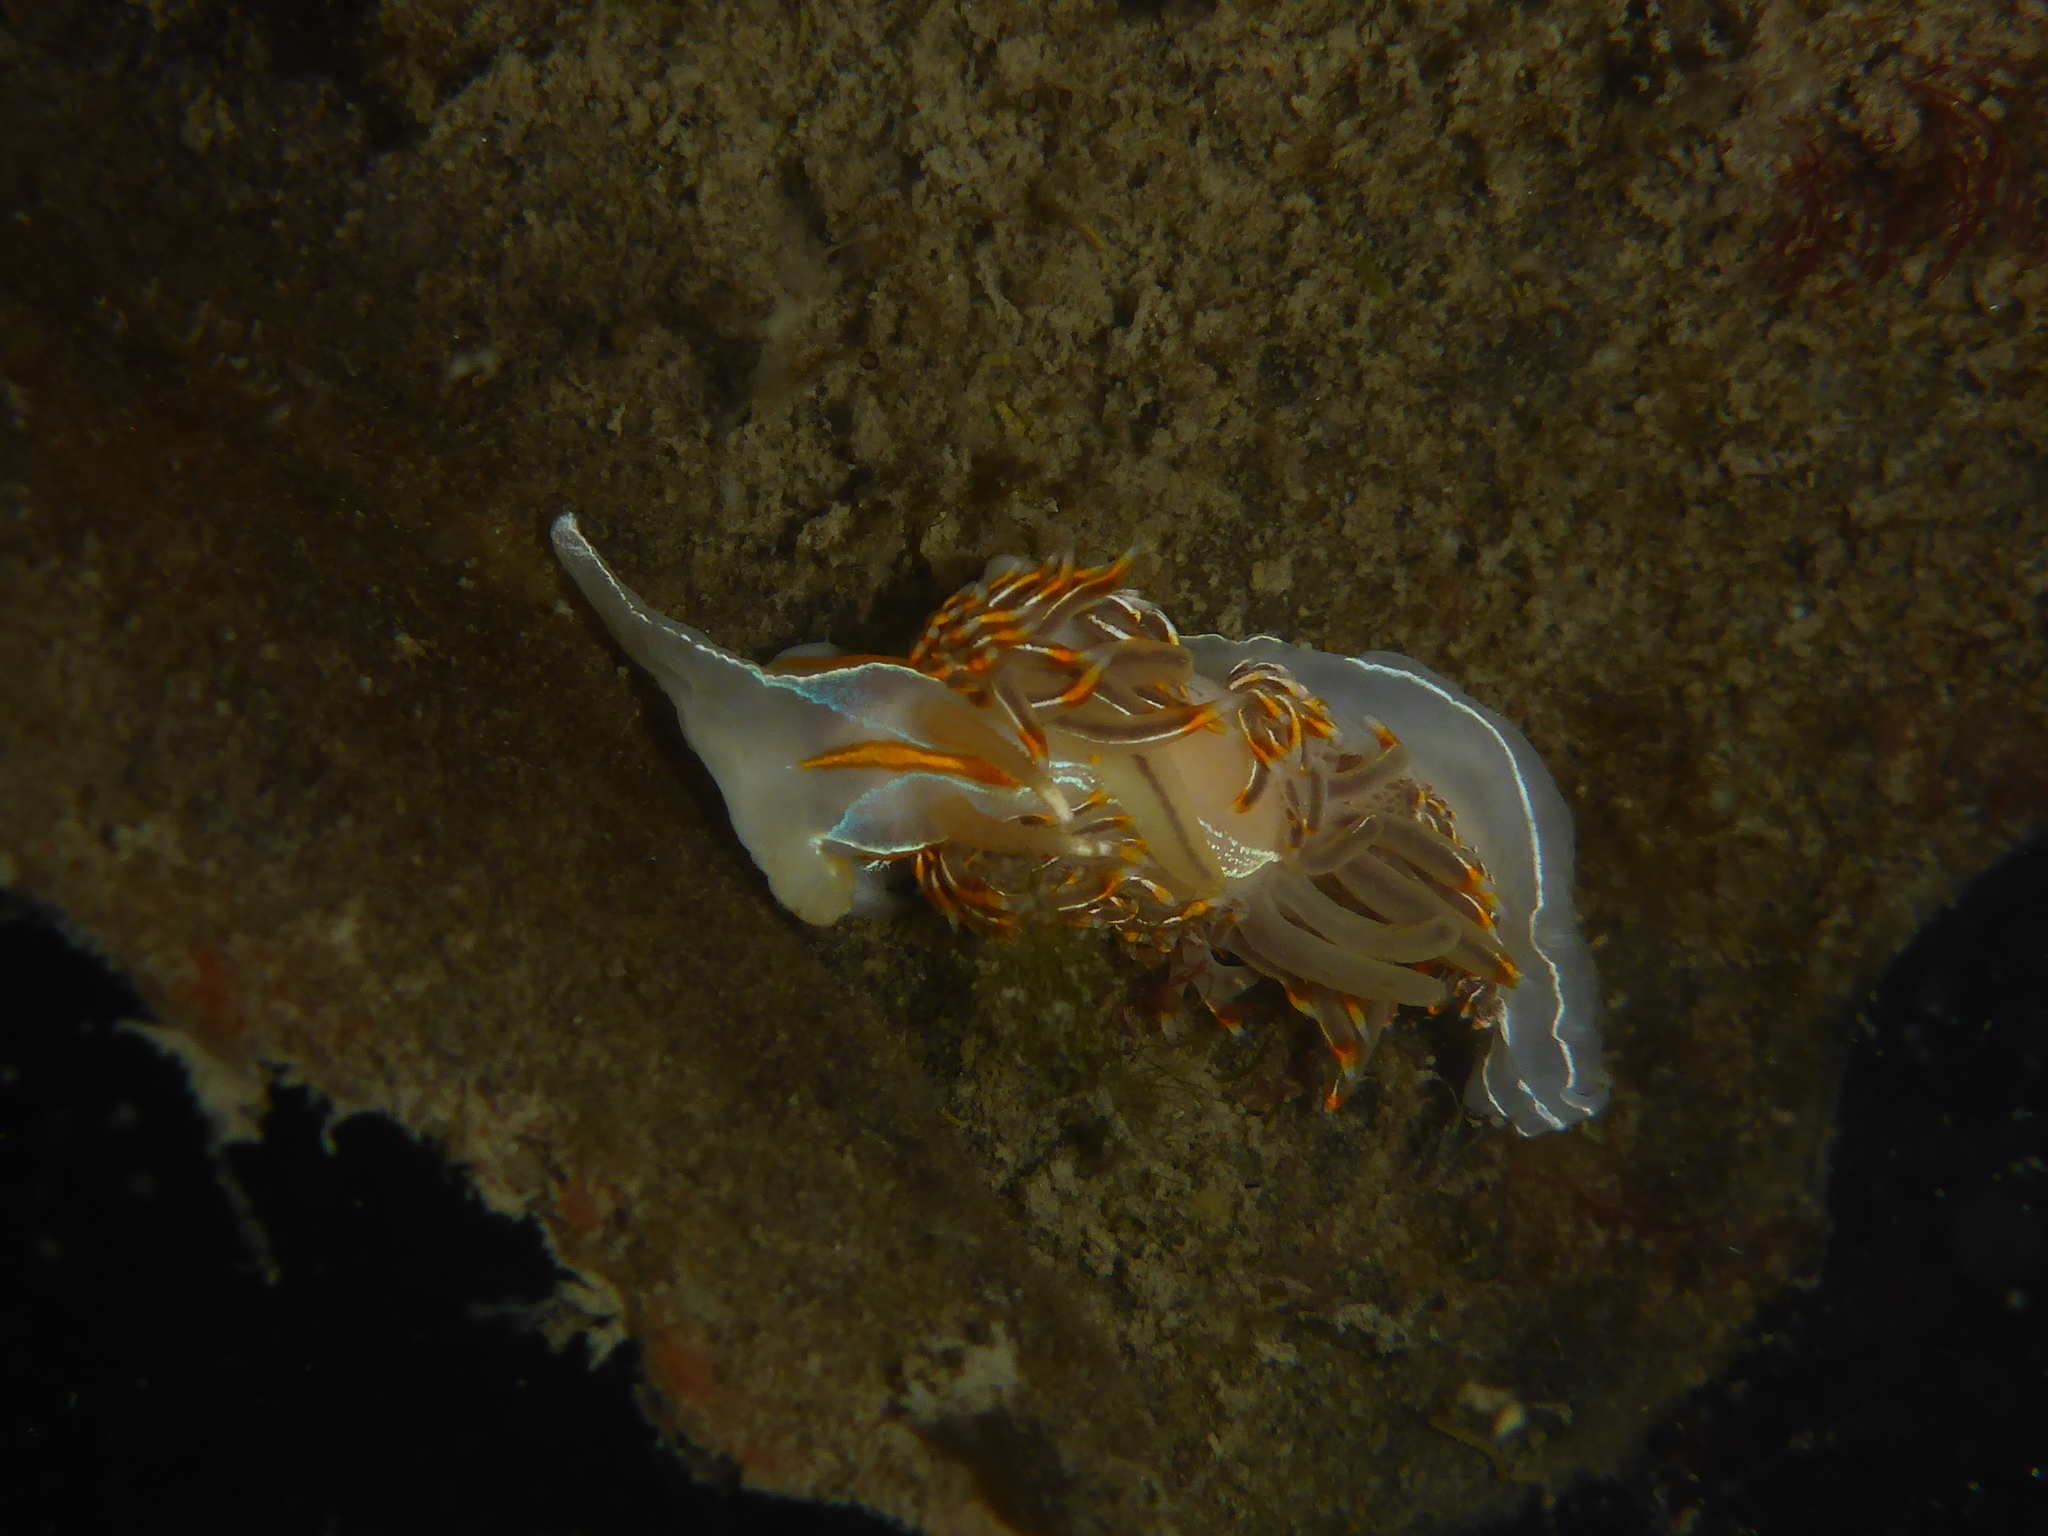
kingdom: Animalia
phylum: Mollusca
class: Gastropoda
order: Nudibranchia
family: Myrrhinidae
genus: Hermissenda
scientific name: Hermissenda crassicornis
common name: Hermissenda
